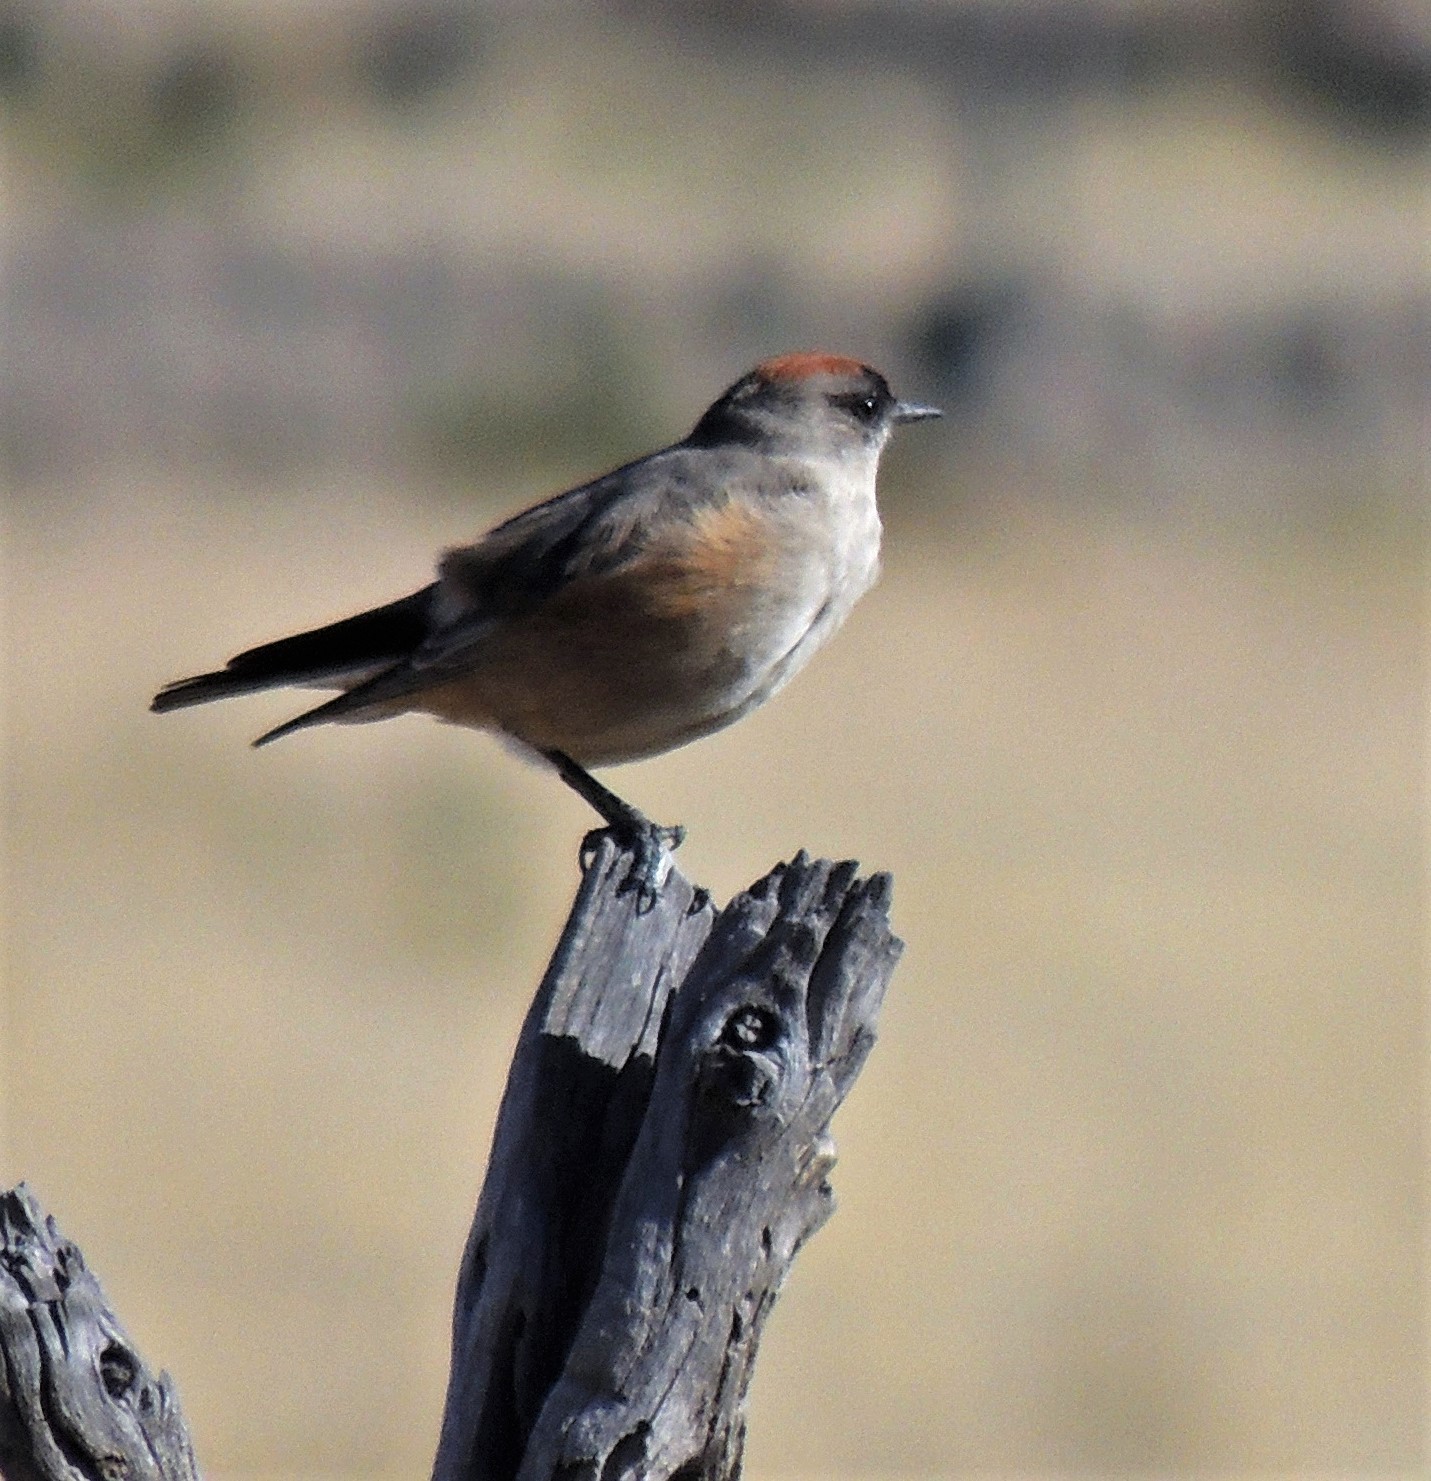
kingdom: Animalia
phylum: Chordata
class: Aves
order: Passeriformes
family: Tyrannidae
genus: Muscisaxicola
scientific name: Muscisaxicola capistratus
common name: Cinnamon-bellied ground tyrant
